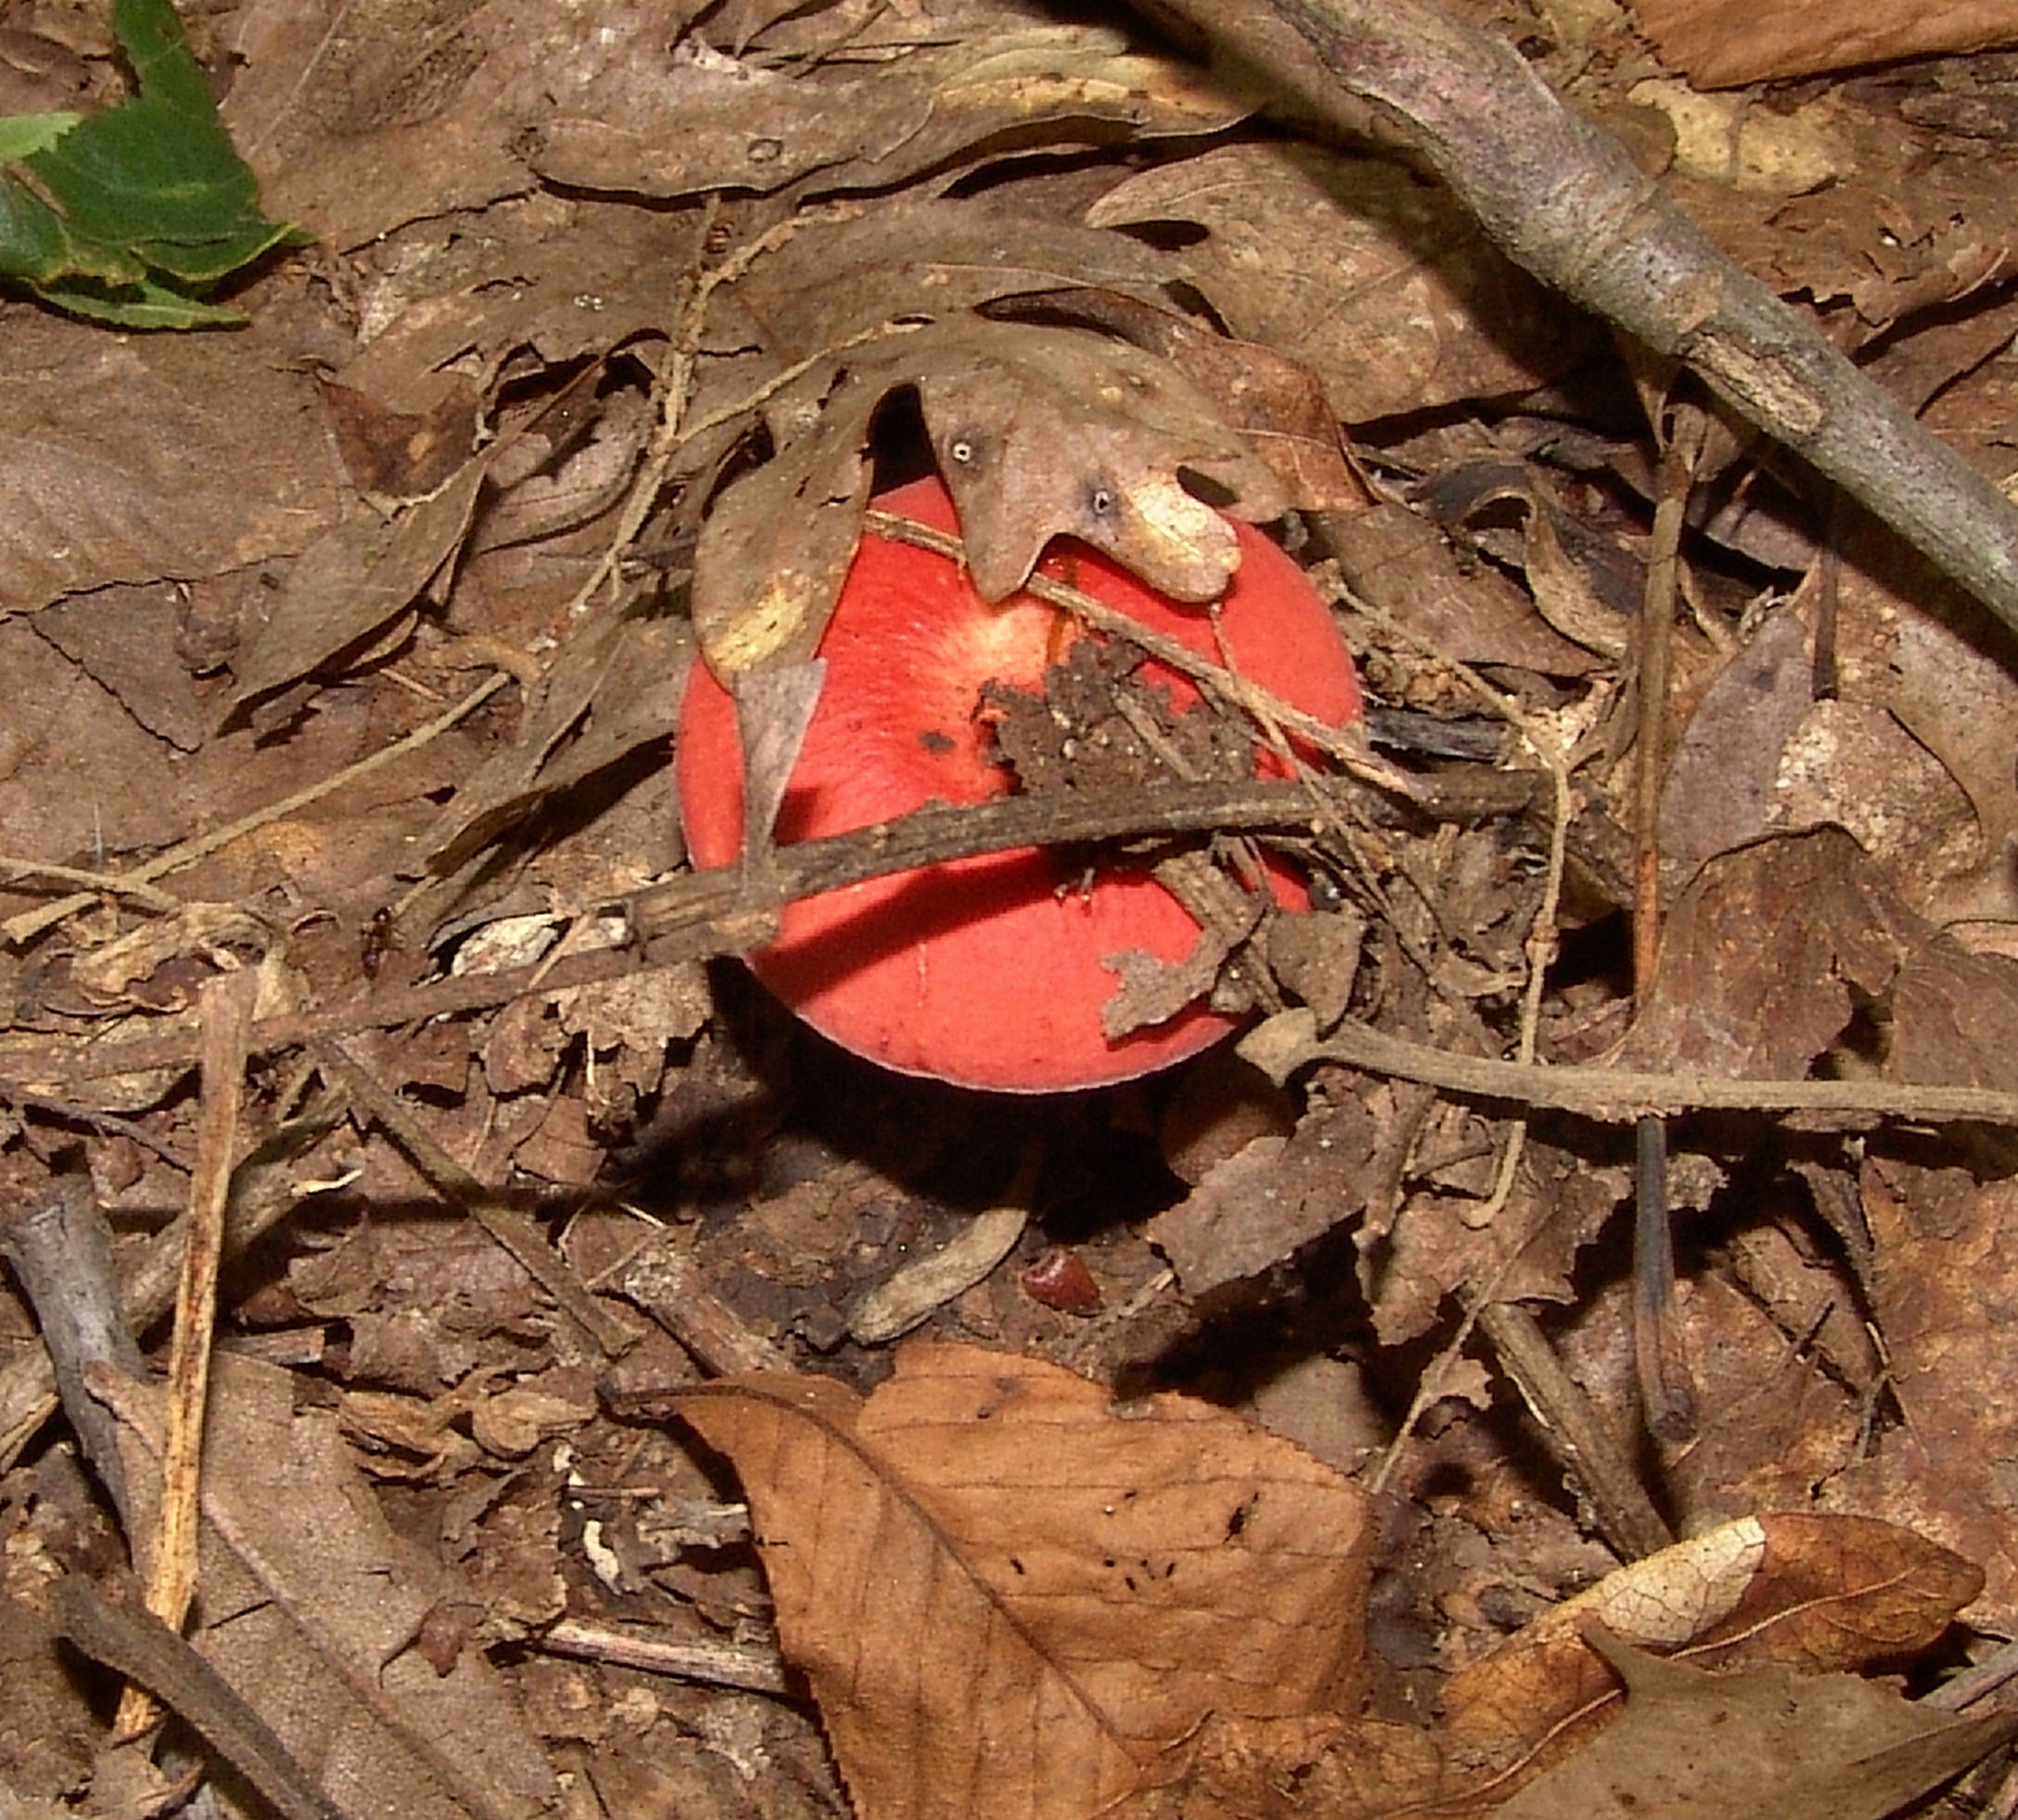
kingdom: Fungi
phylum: Basidiomycota
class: Agaricomycetes
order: Russulales
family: Russulaceae
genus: Russula
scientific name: Russula
